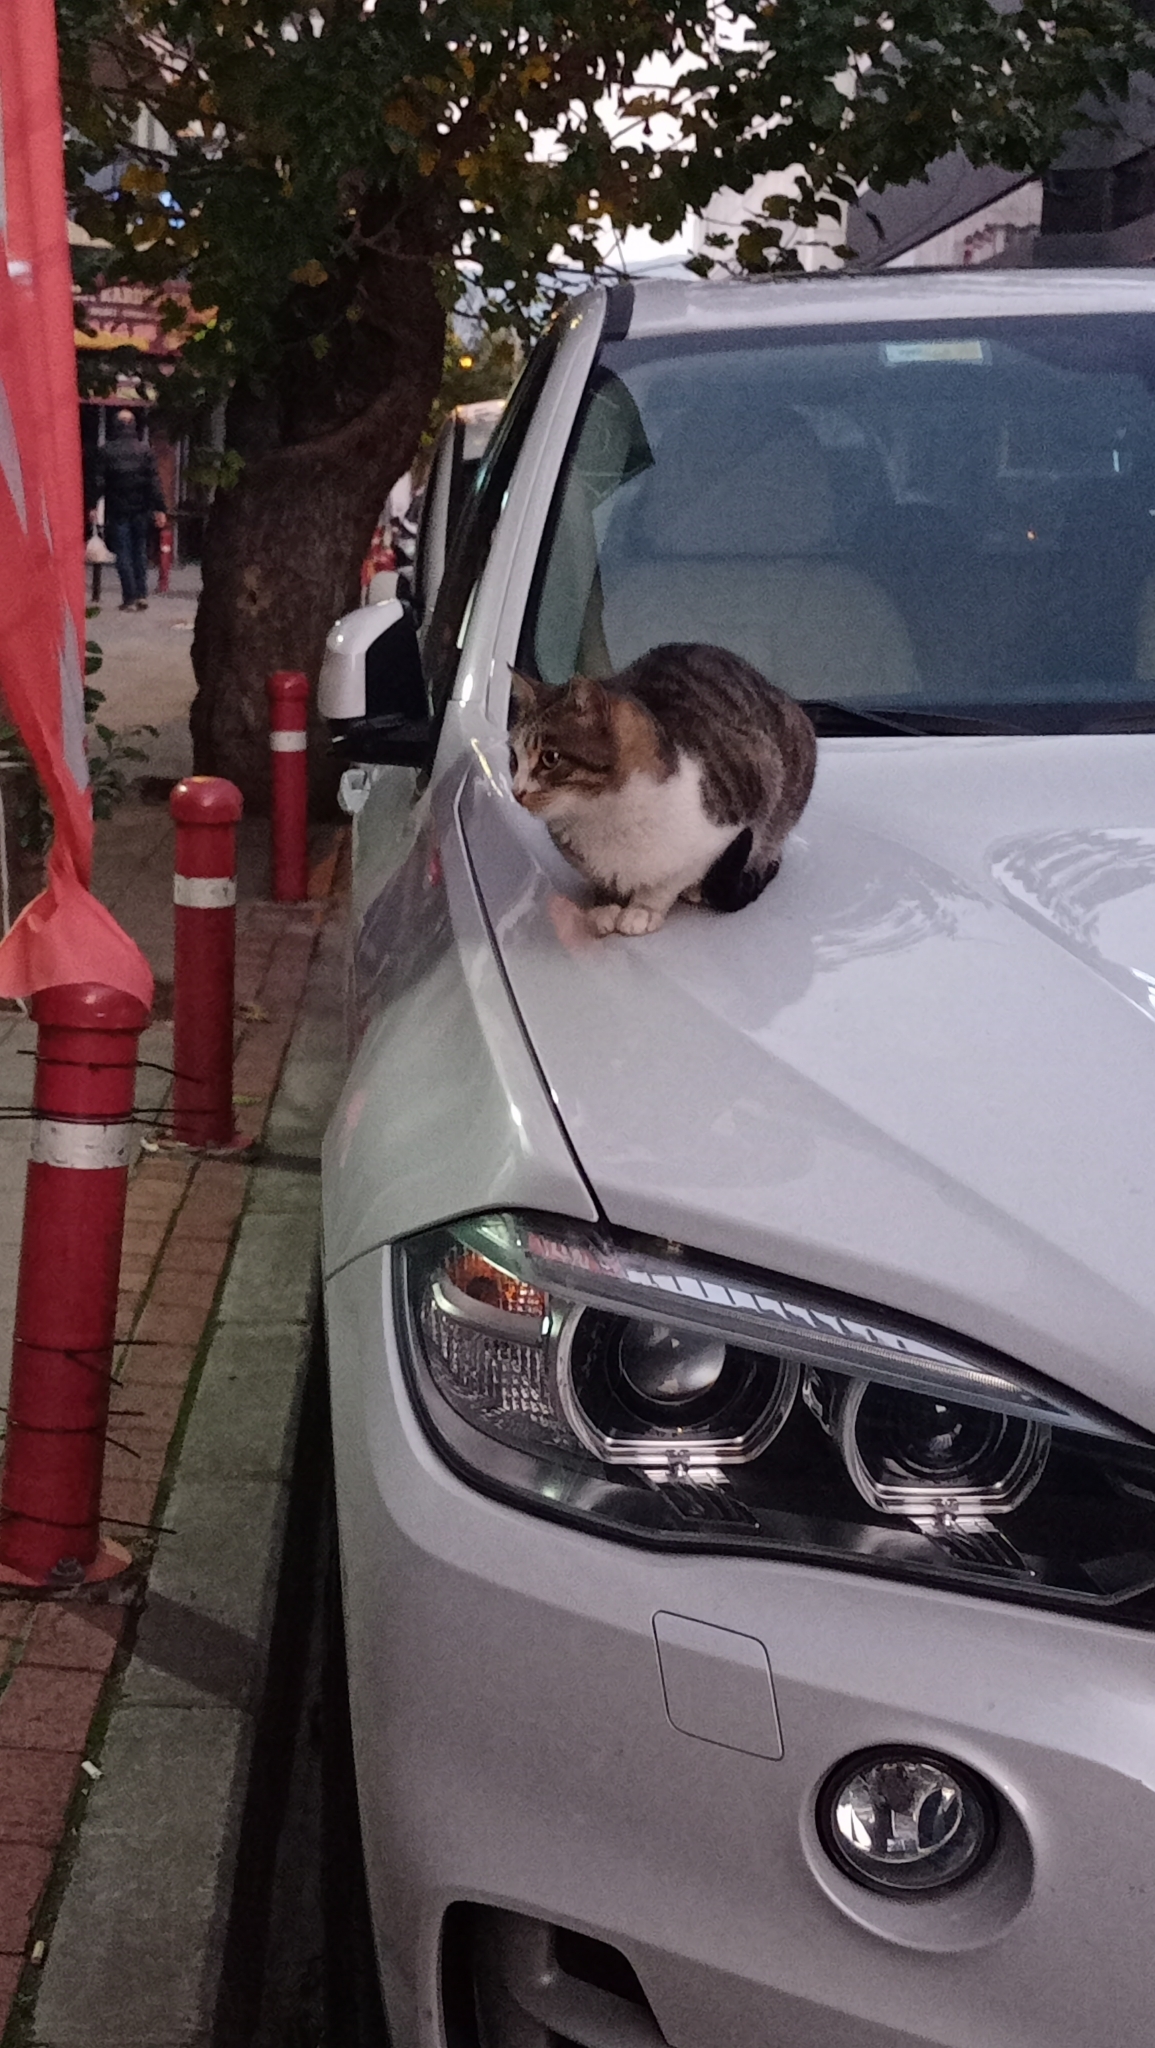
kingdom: Animalia
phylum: Chordata
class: Mammalia
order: Carnivora
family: Felidae
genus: Felis
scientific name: Felis catus
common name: Domestic cat
